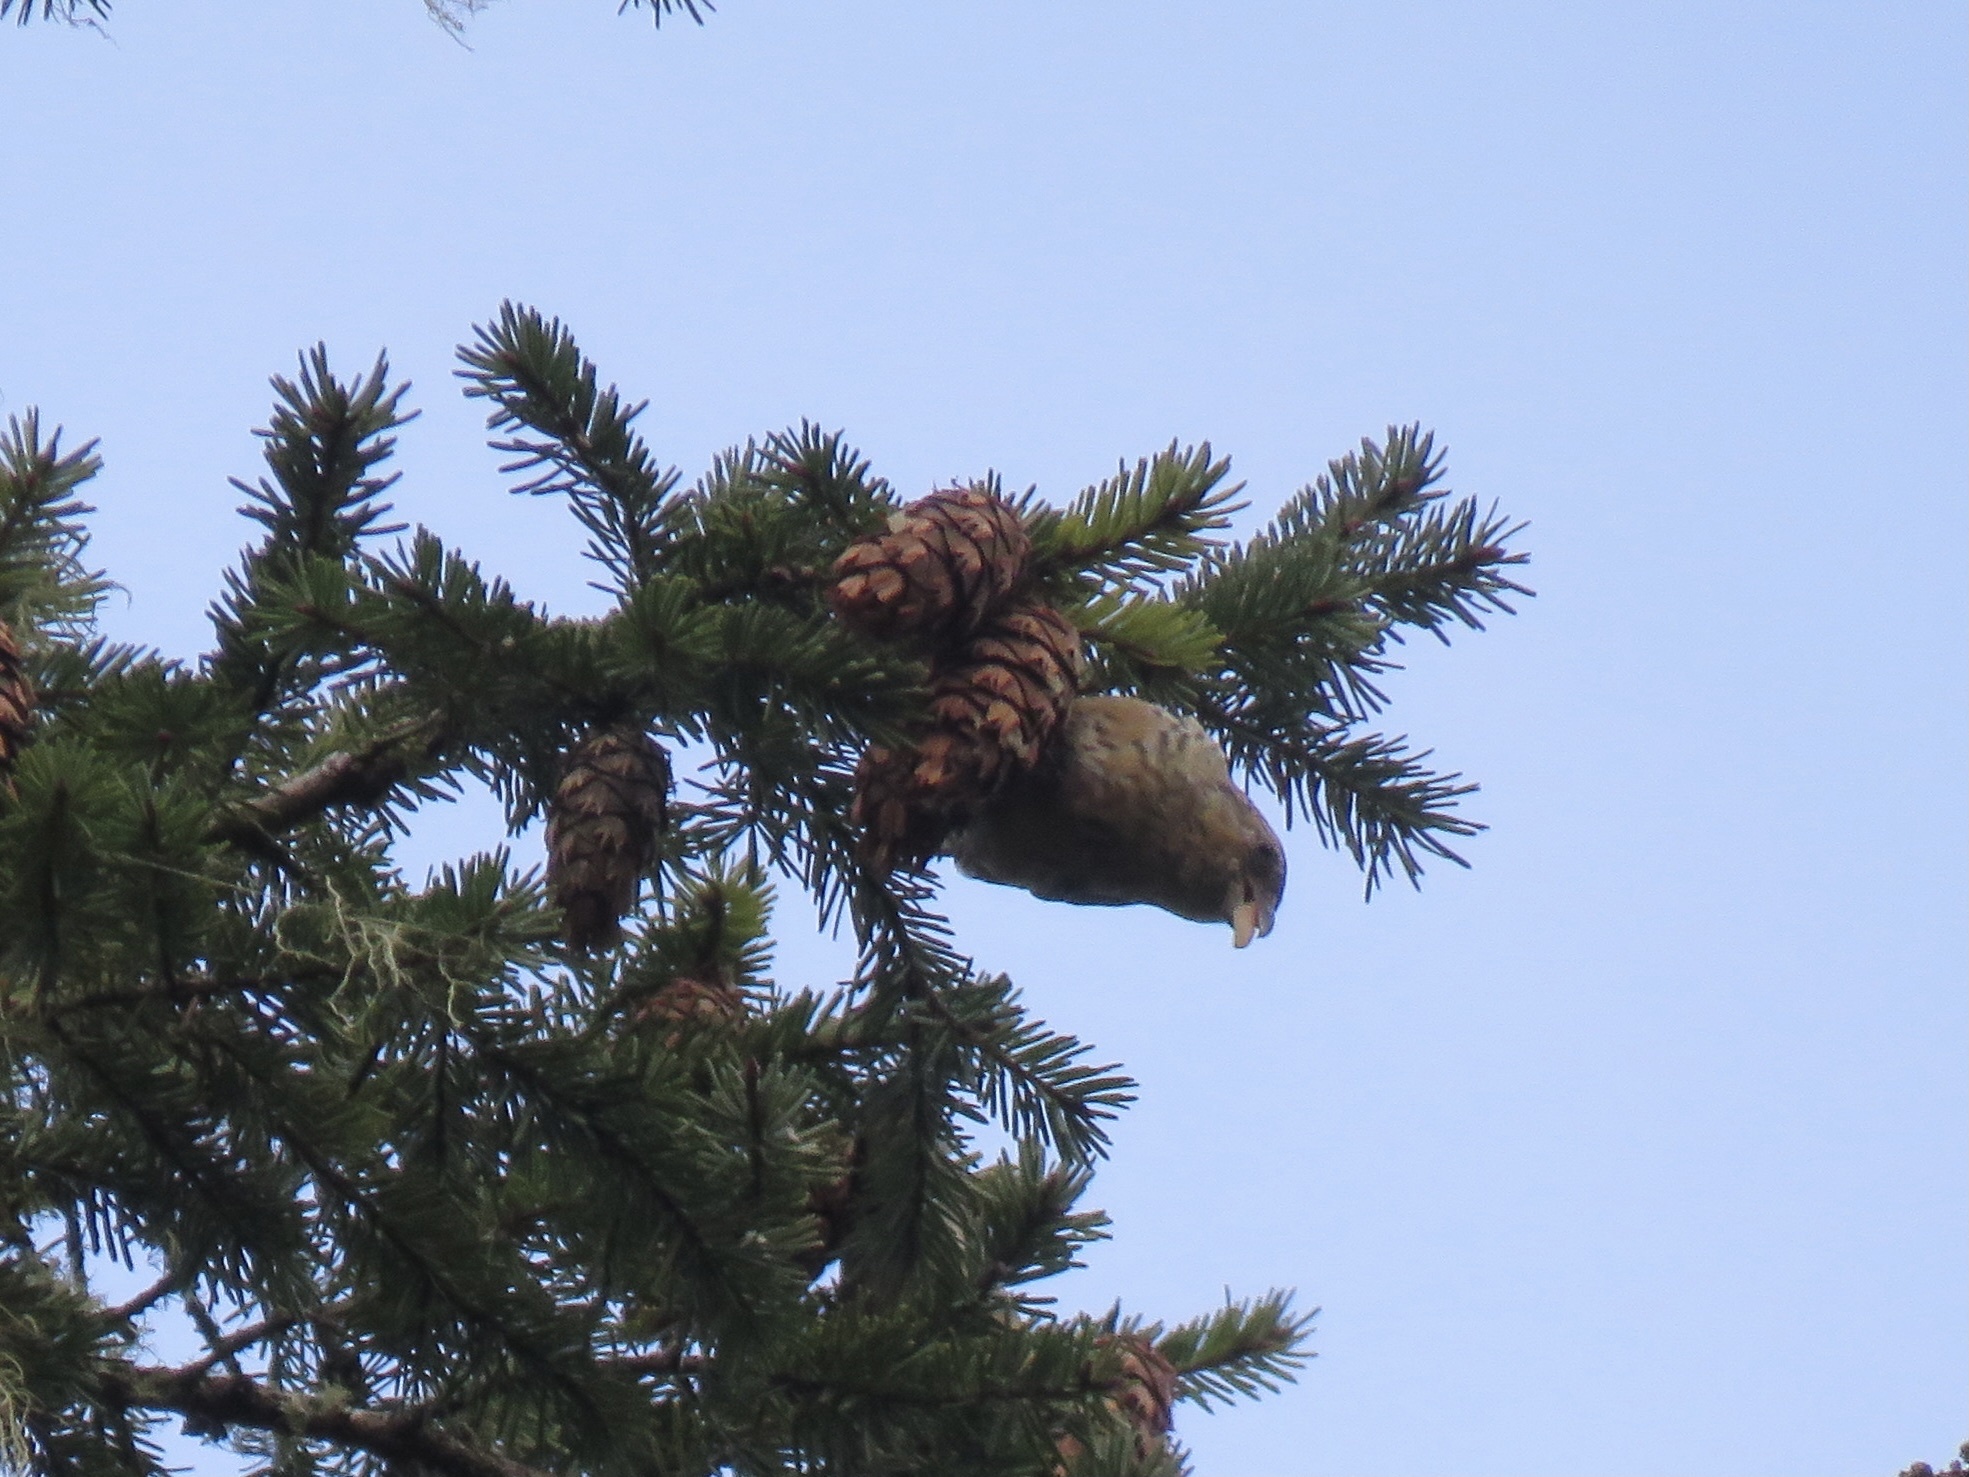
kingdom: Animalia
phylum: Chordata
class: Aves
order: Passeriformes
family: Fringillidae
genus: Loxia
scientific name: Loxia curvirostra
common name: Red crossbill
